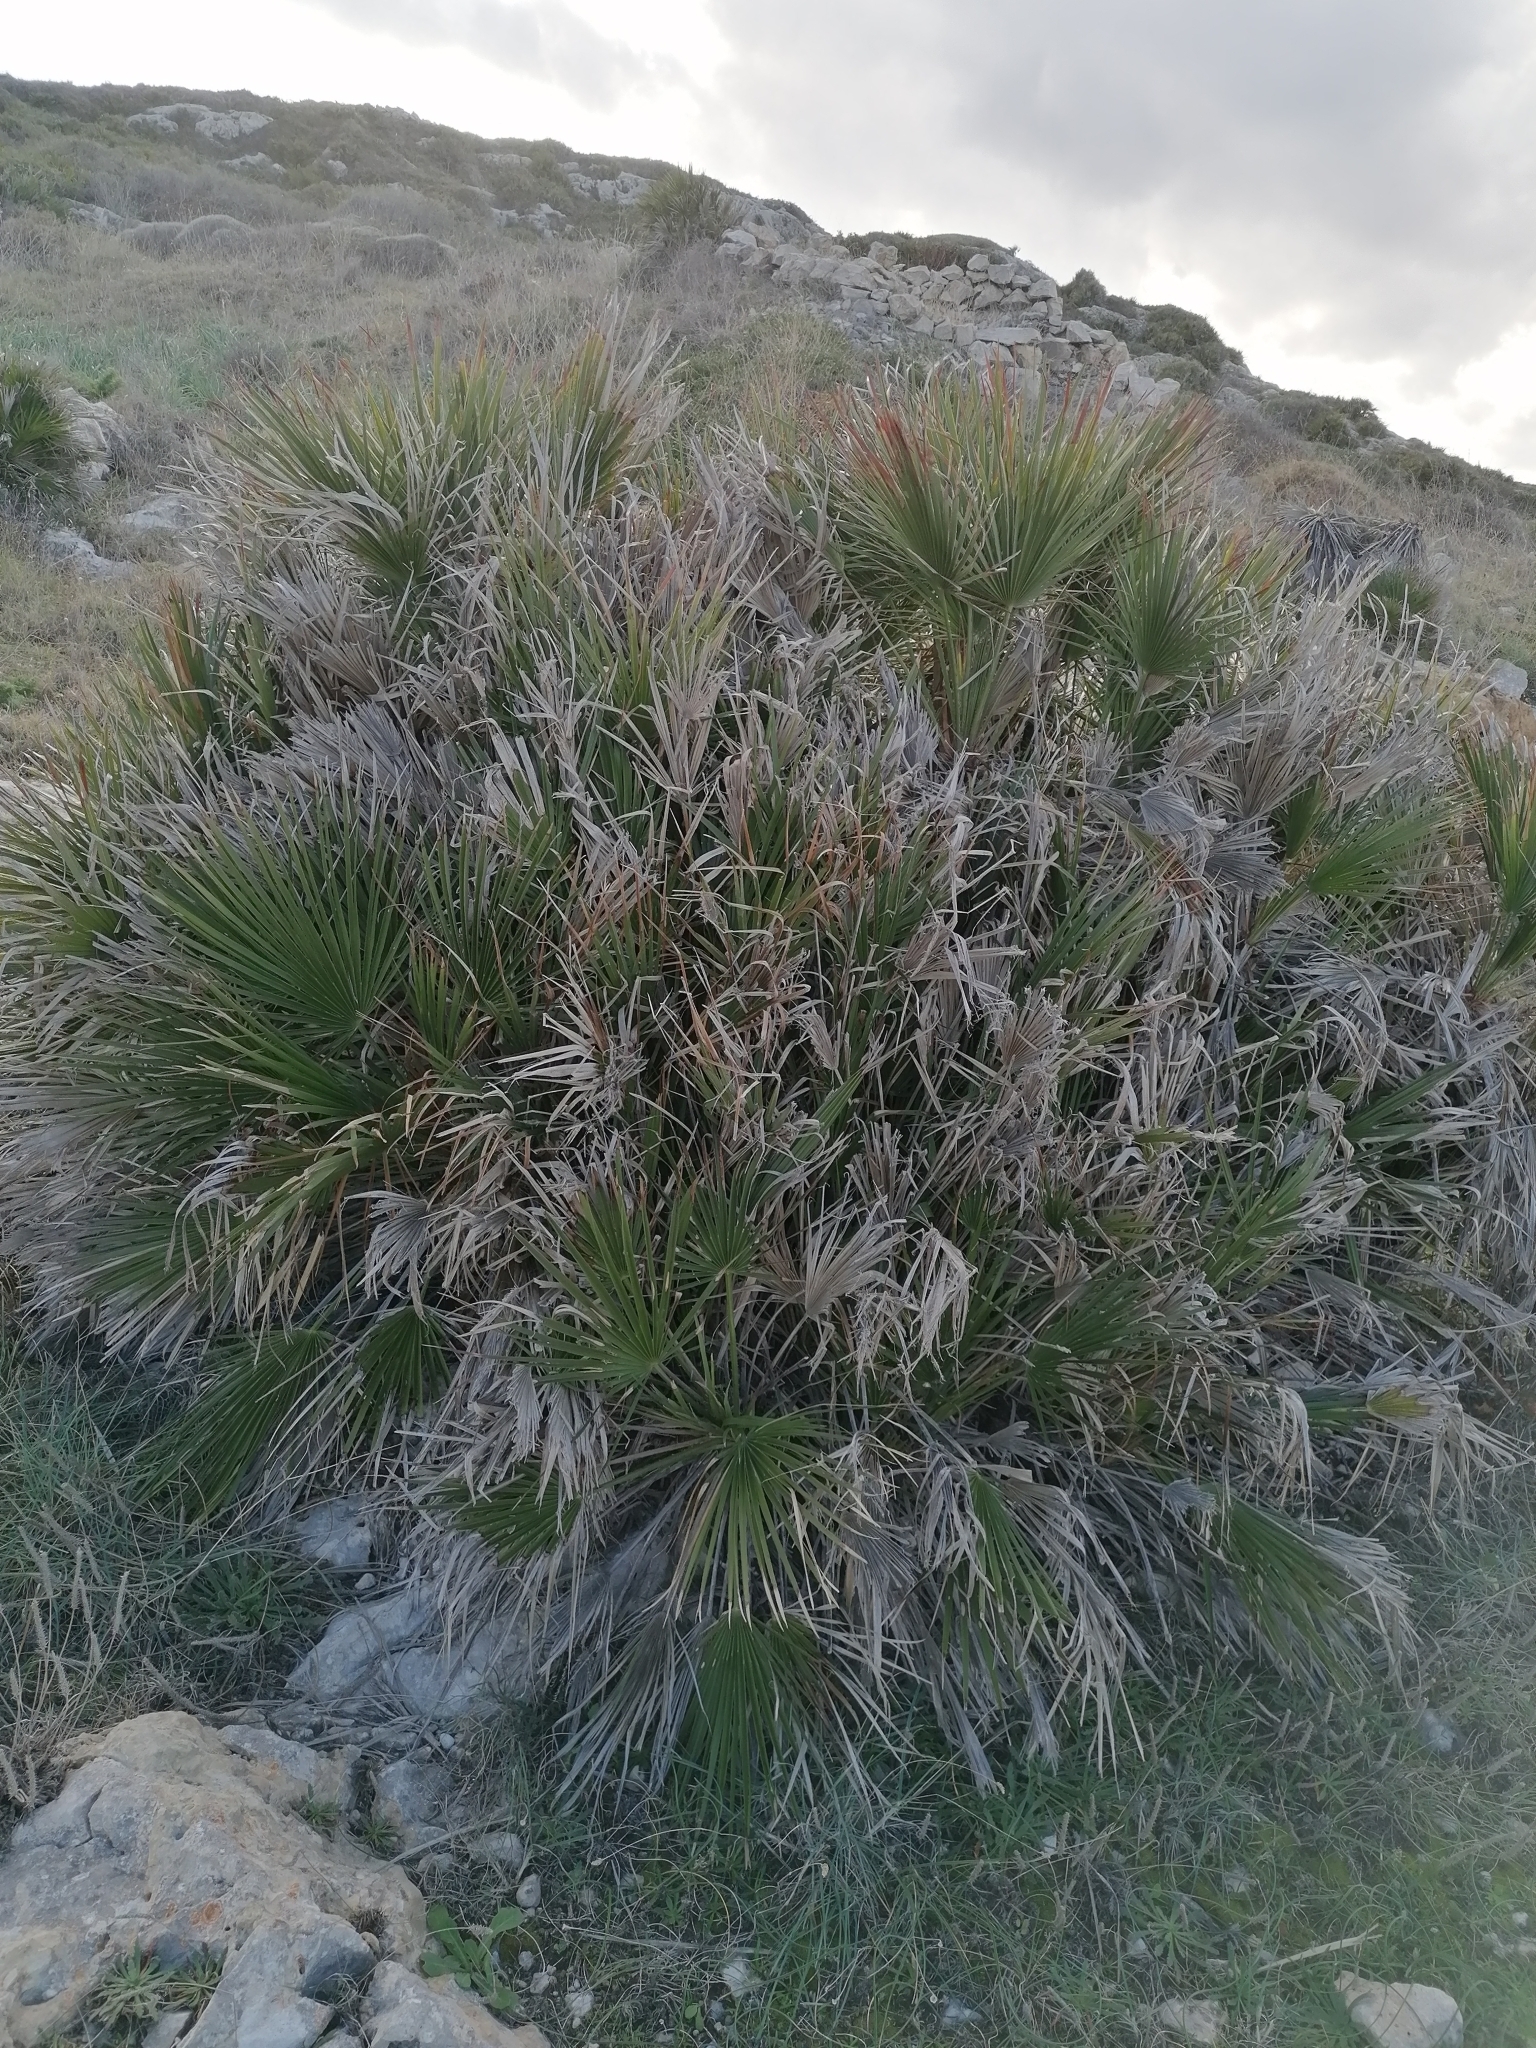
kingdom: Plantae
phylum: Tracheophyta
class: Liliopsida
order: Arecales
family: Arecaceae
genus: Chamaerops
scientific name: Chamaerops humilis
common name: Dwarf fan palm
